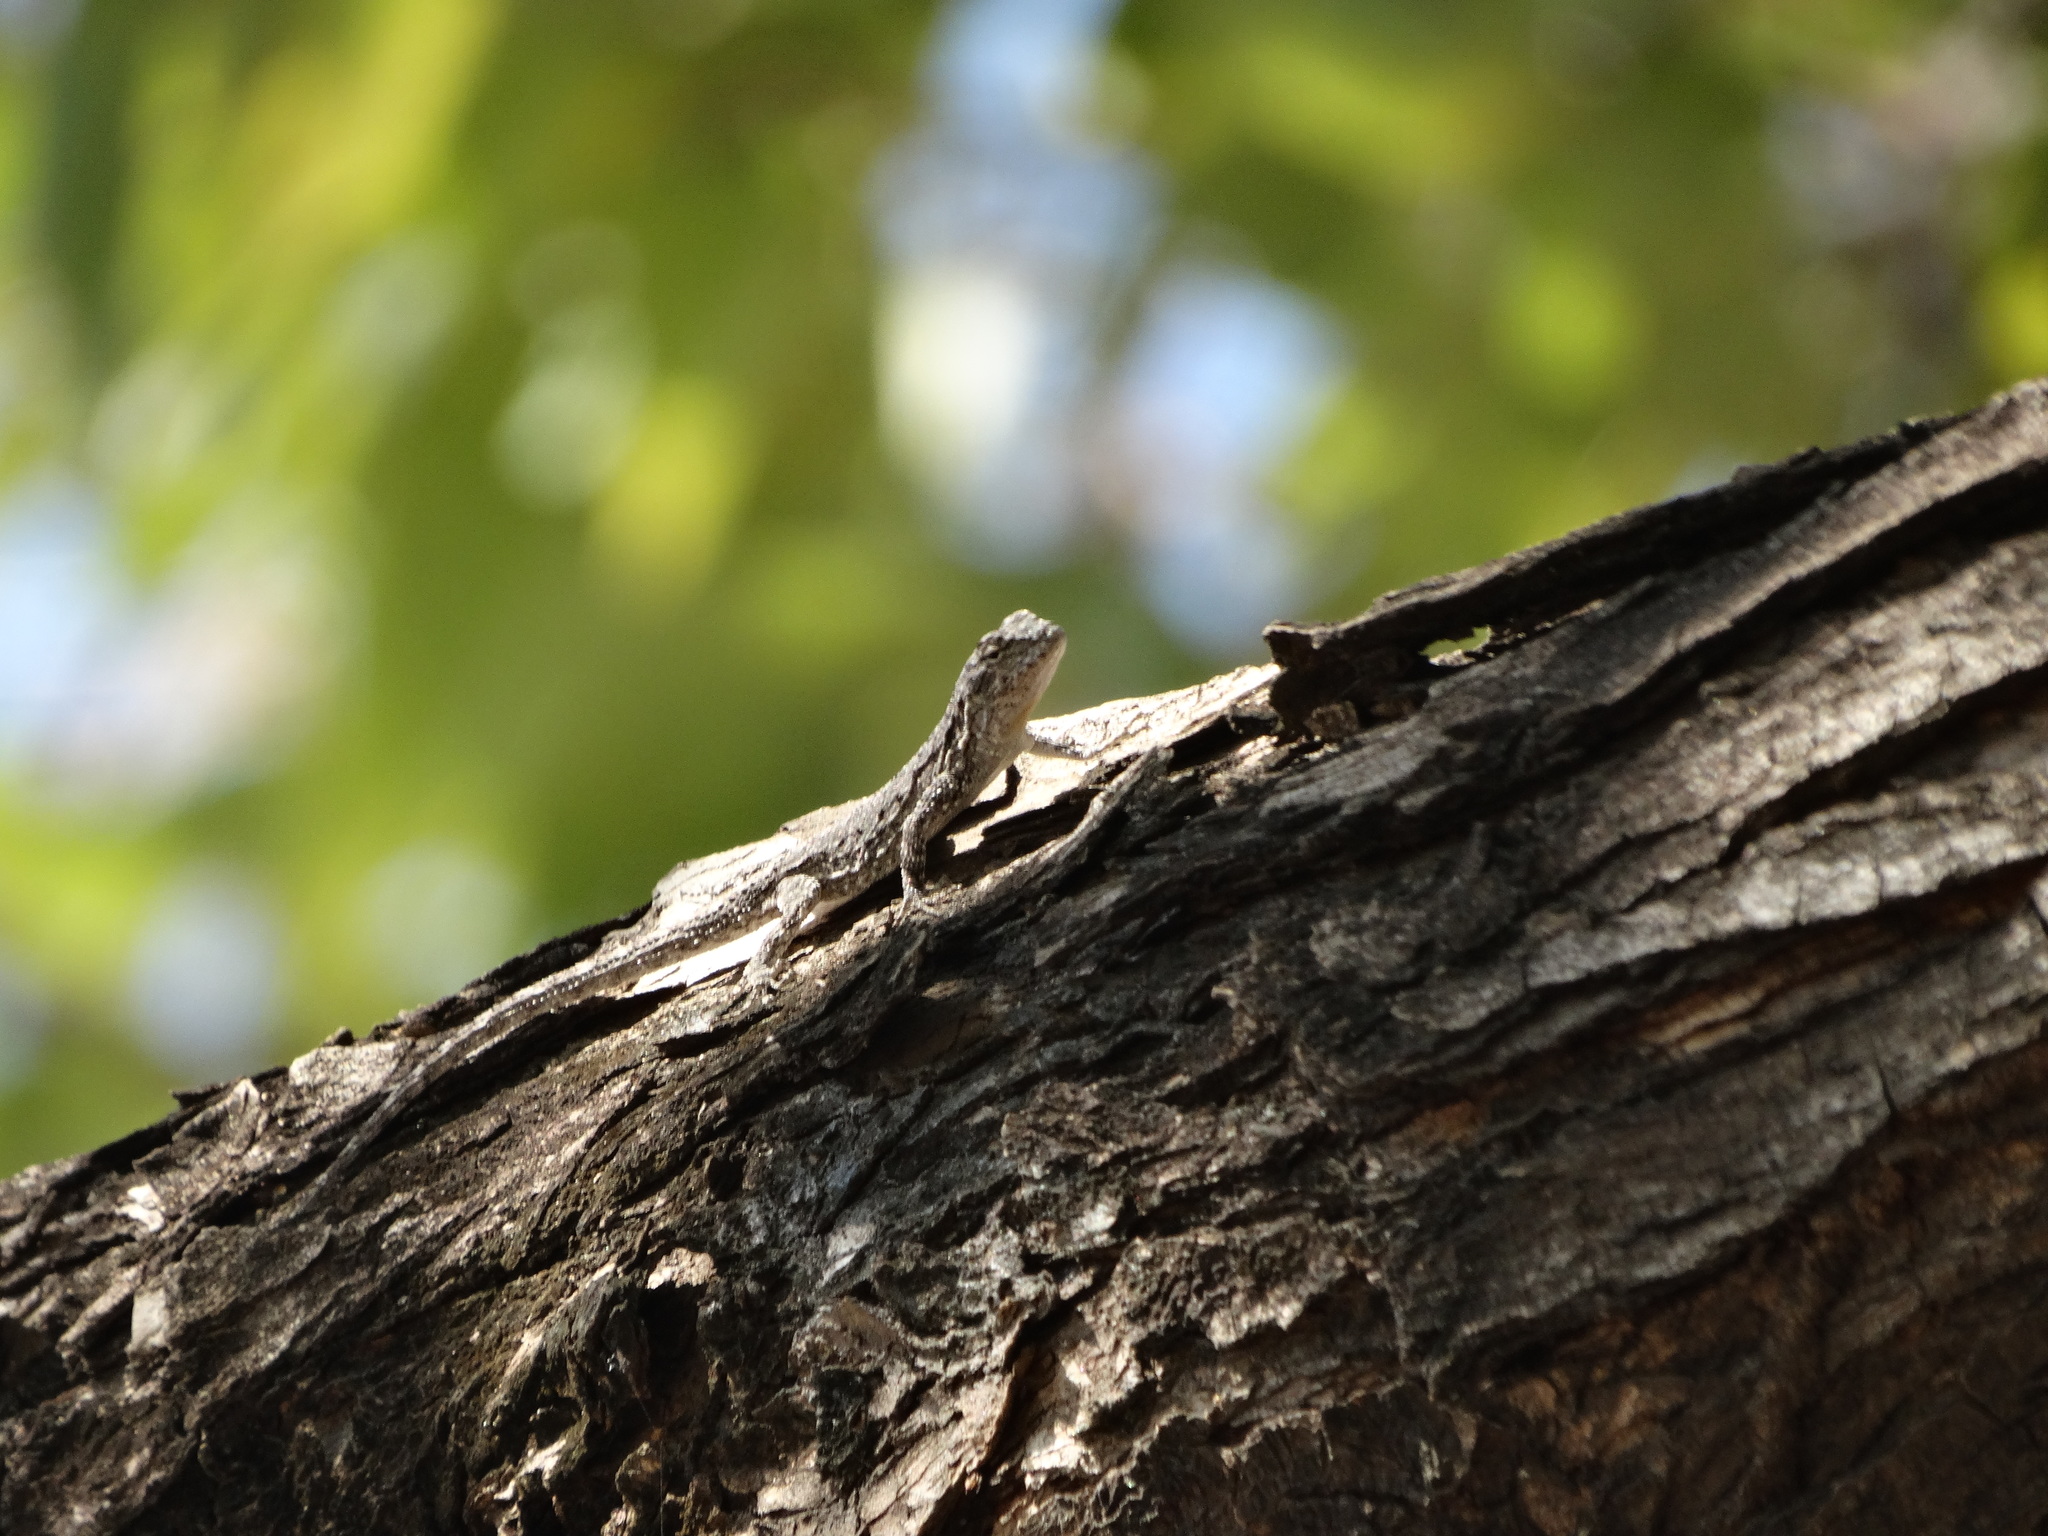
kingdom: Animalia
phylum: Chordata
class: Squamata
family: Phrynosomatidae
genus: Urosaurus
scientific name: Urosaurus bicarinatus
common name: Tropical tree lizard
